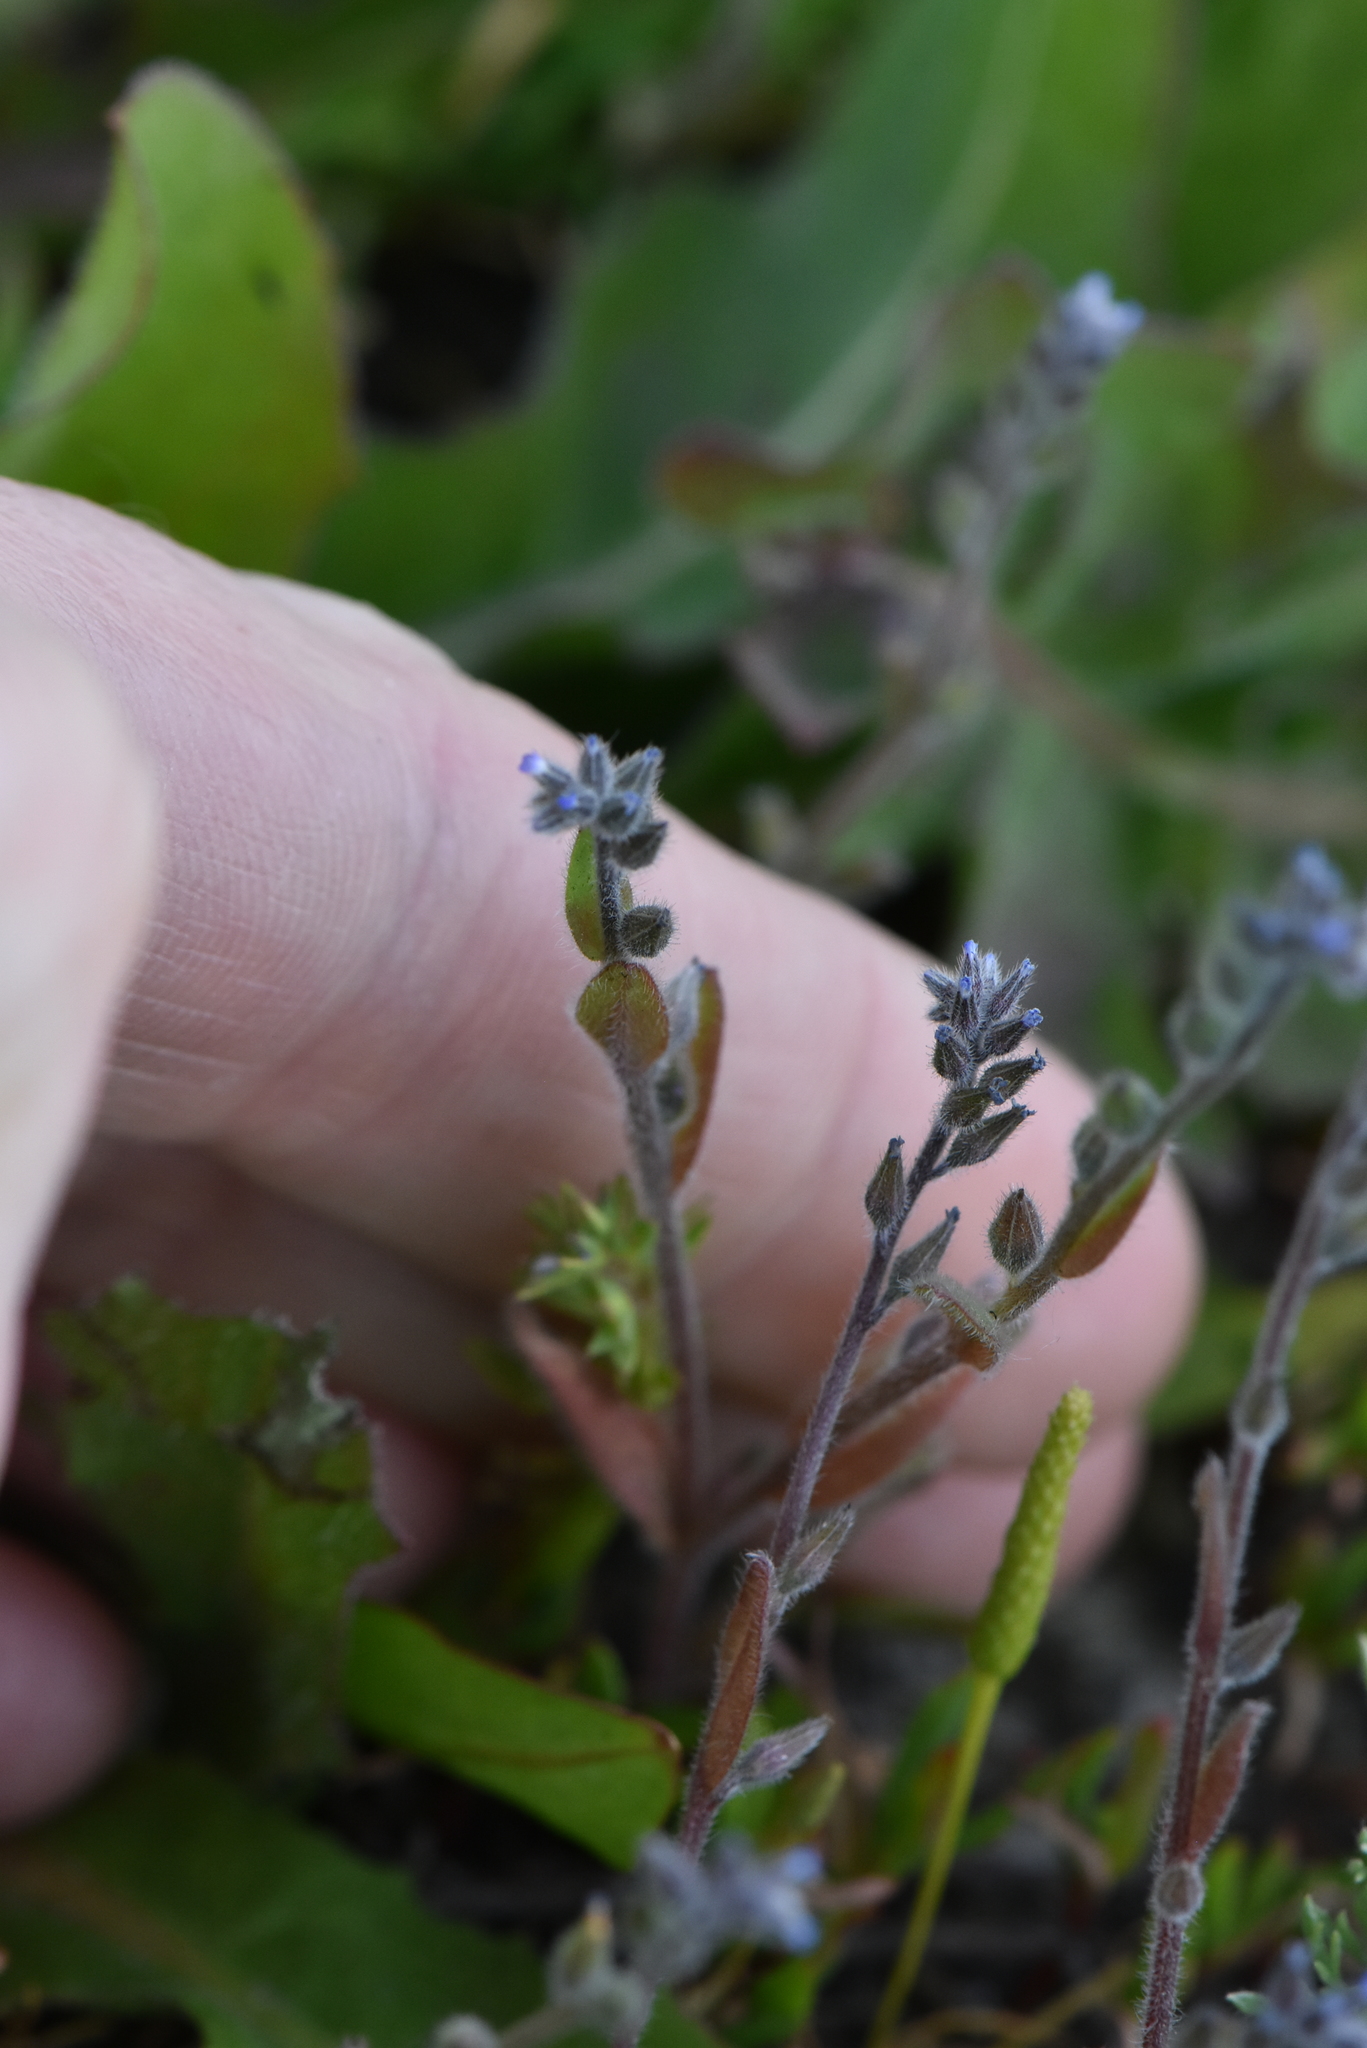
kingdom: Plantae
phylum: Tracheophyta
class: Magnoliopsida
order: Boraginales
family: Boraginaceae
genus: Myosotis
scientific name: Myosotis stricta
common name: Strict forget-me-not
